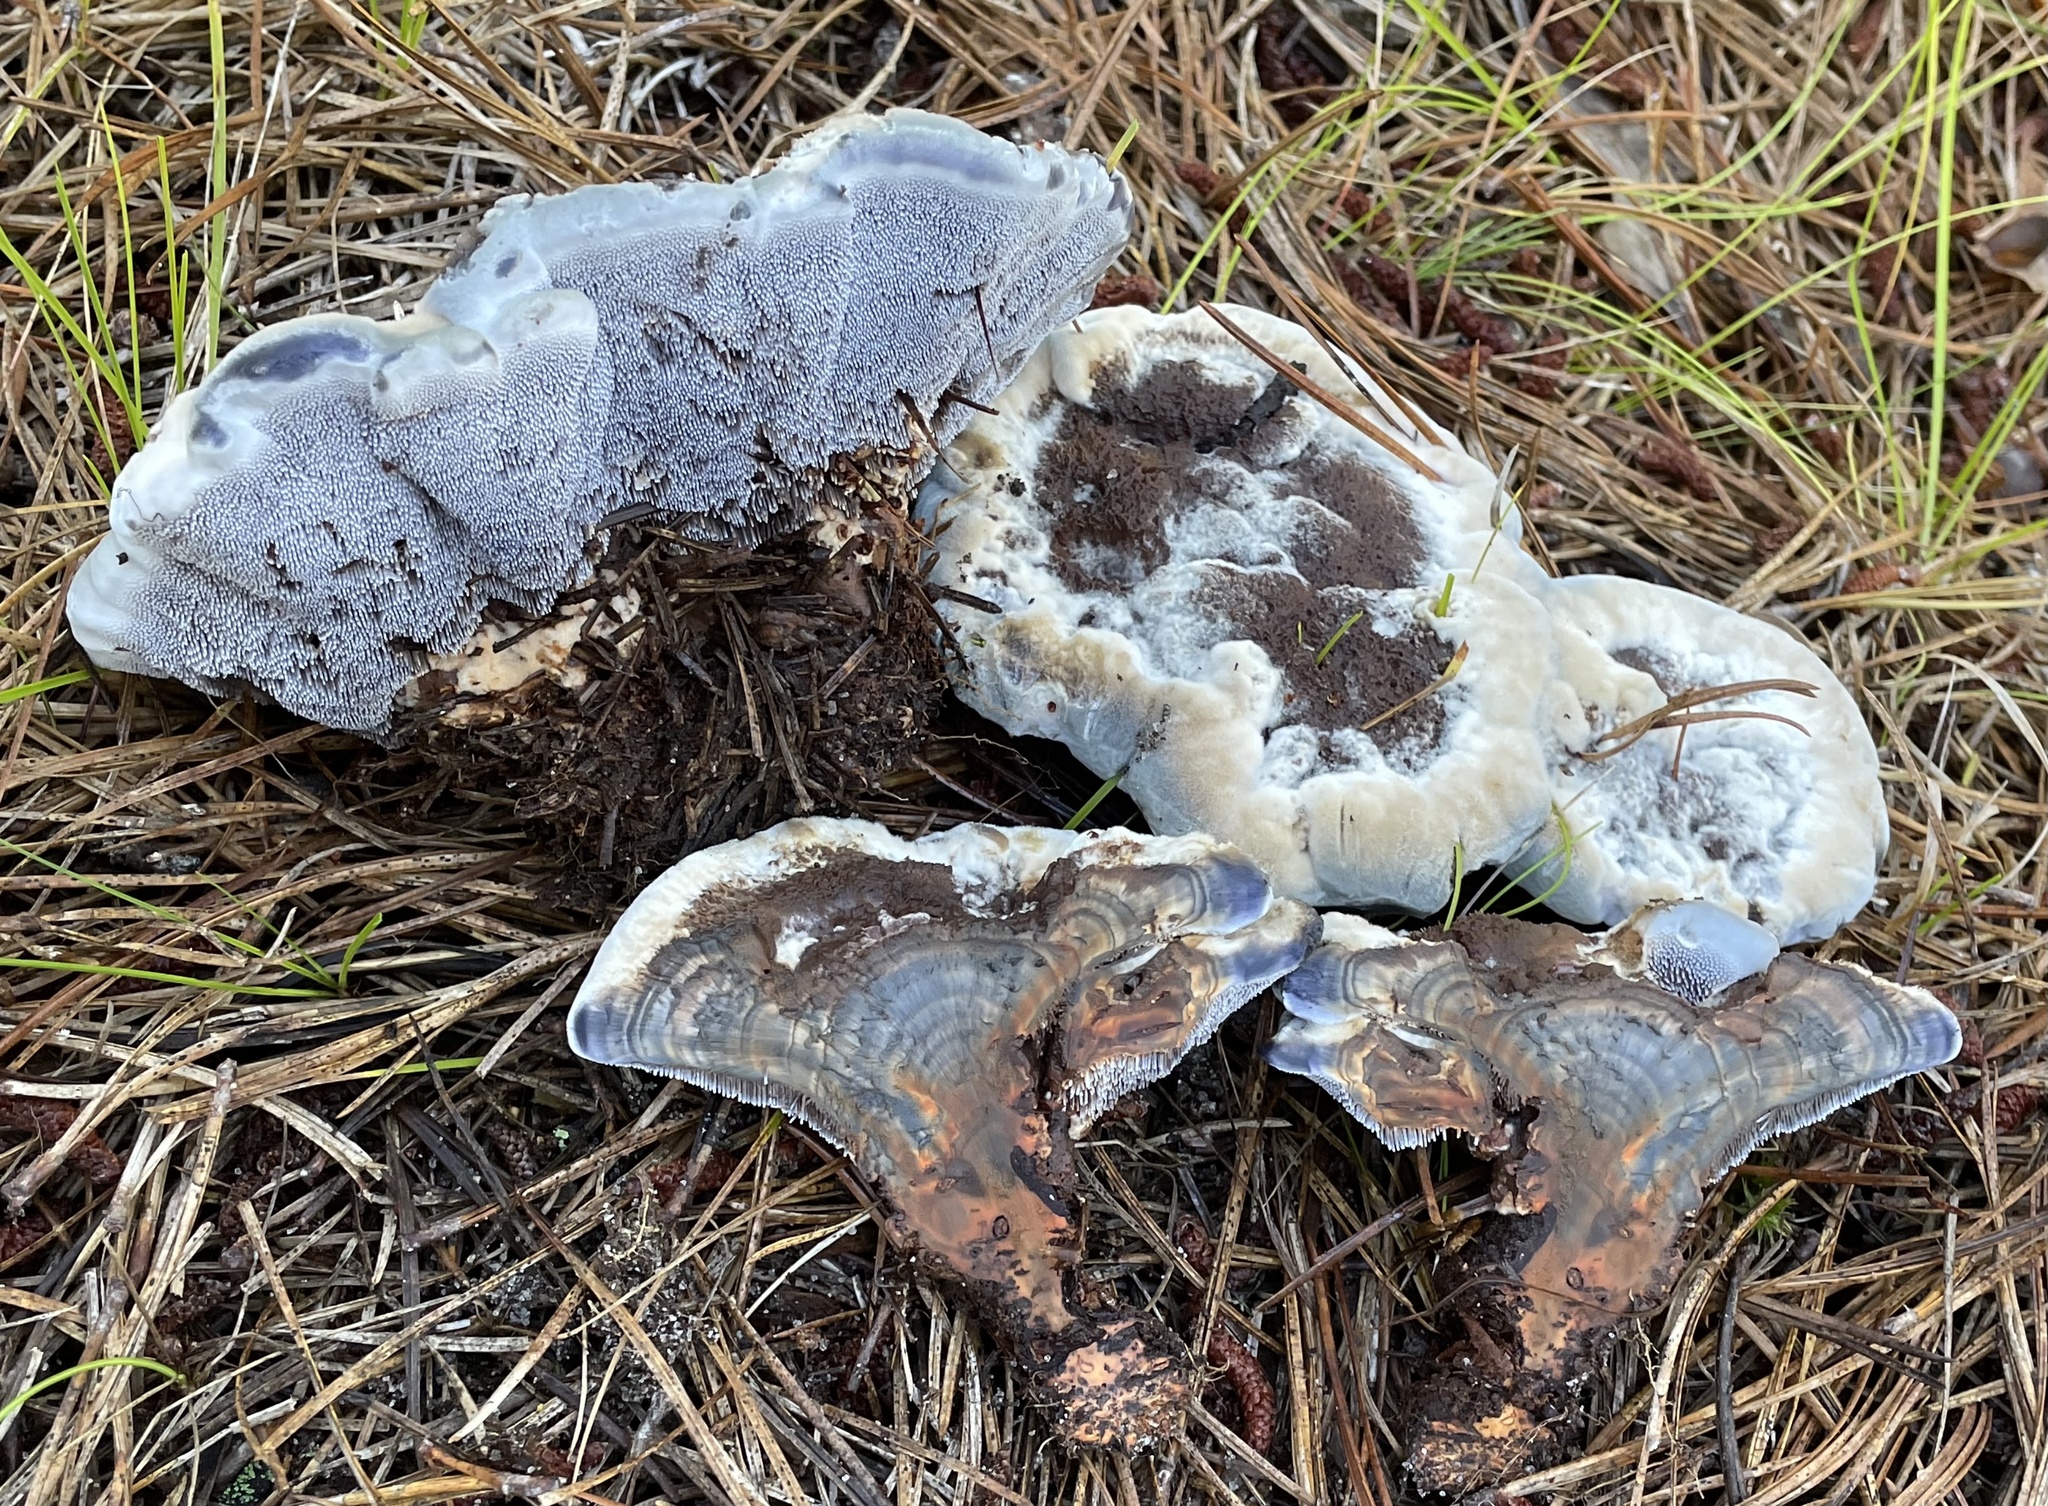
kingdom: Fungi
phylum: Basidiomycota
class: Agaricomycetes
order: Thelephorales
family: Bankeraceae
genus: Hydnellum
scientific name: Hydnellum caeruleum
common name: Blue corky spine fungus
